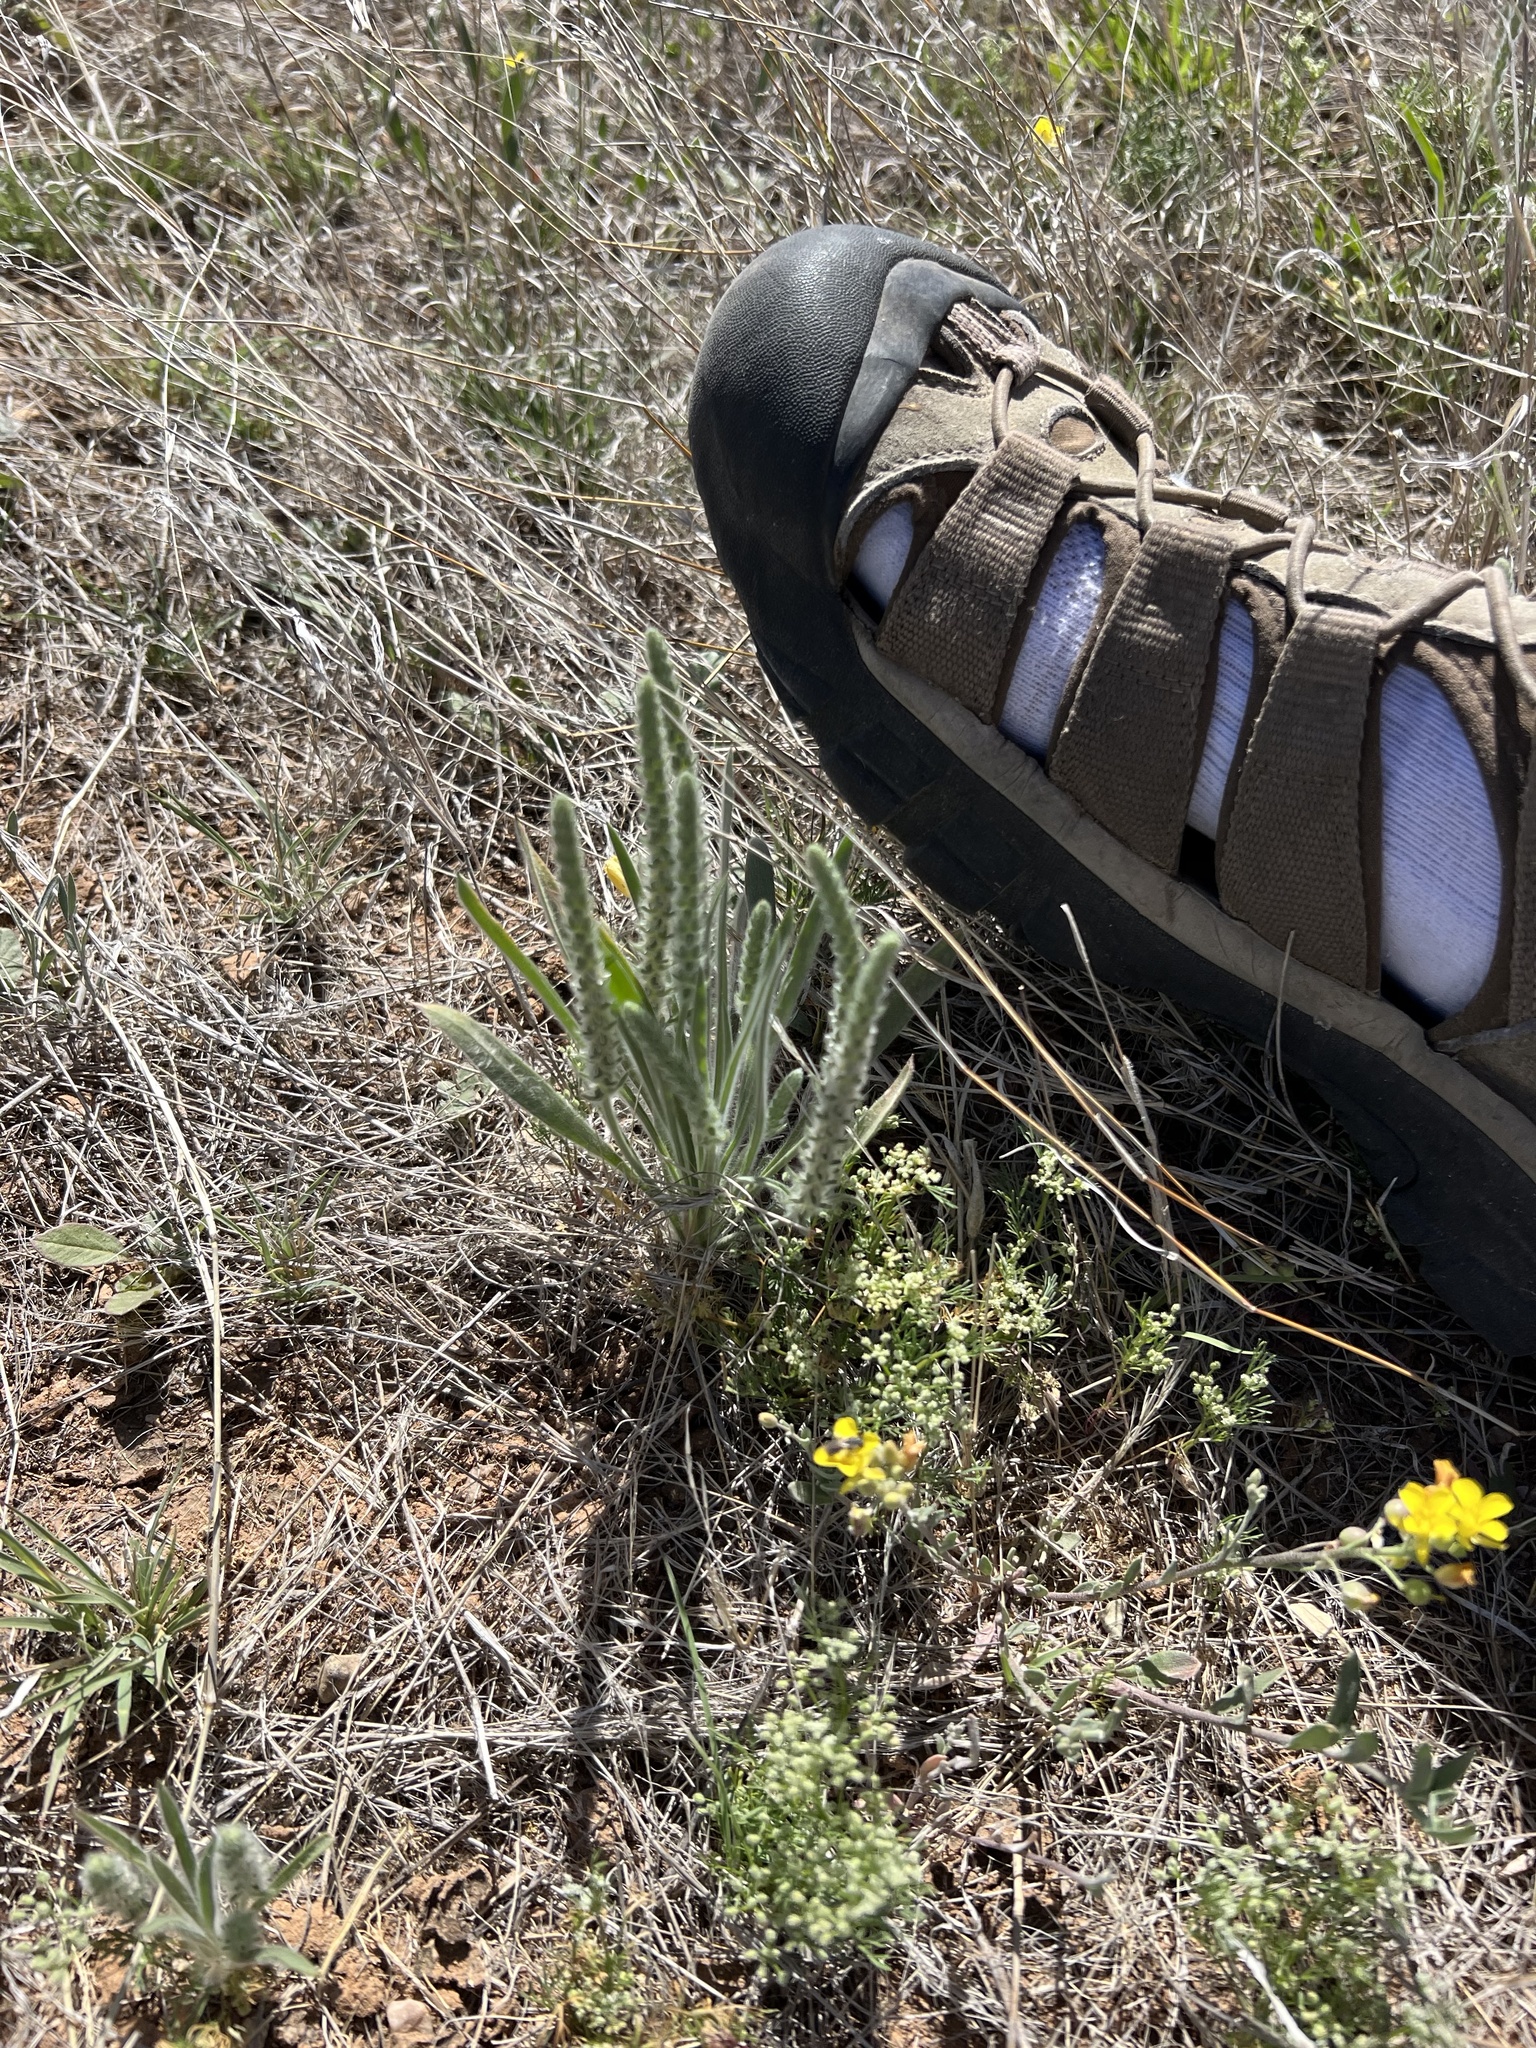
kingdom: Plantae
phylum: Tracheophyta
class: Magnoliopsida
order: Lamiales
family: Plantaginaceae
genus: Plantago
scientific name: Plantago patagonica
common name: Patagonia indian-wheat
